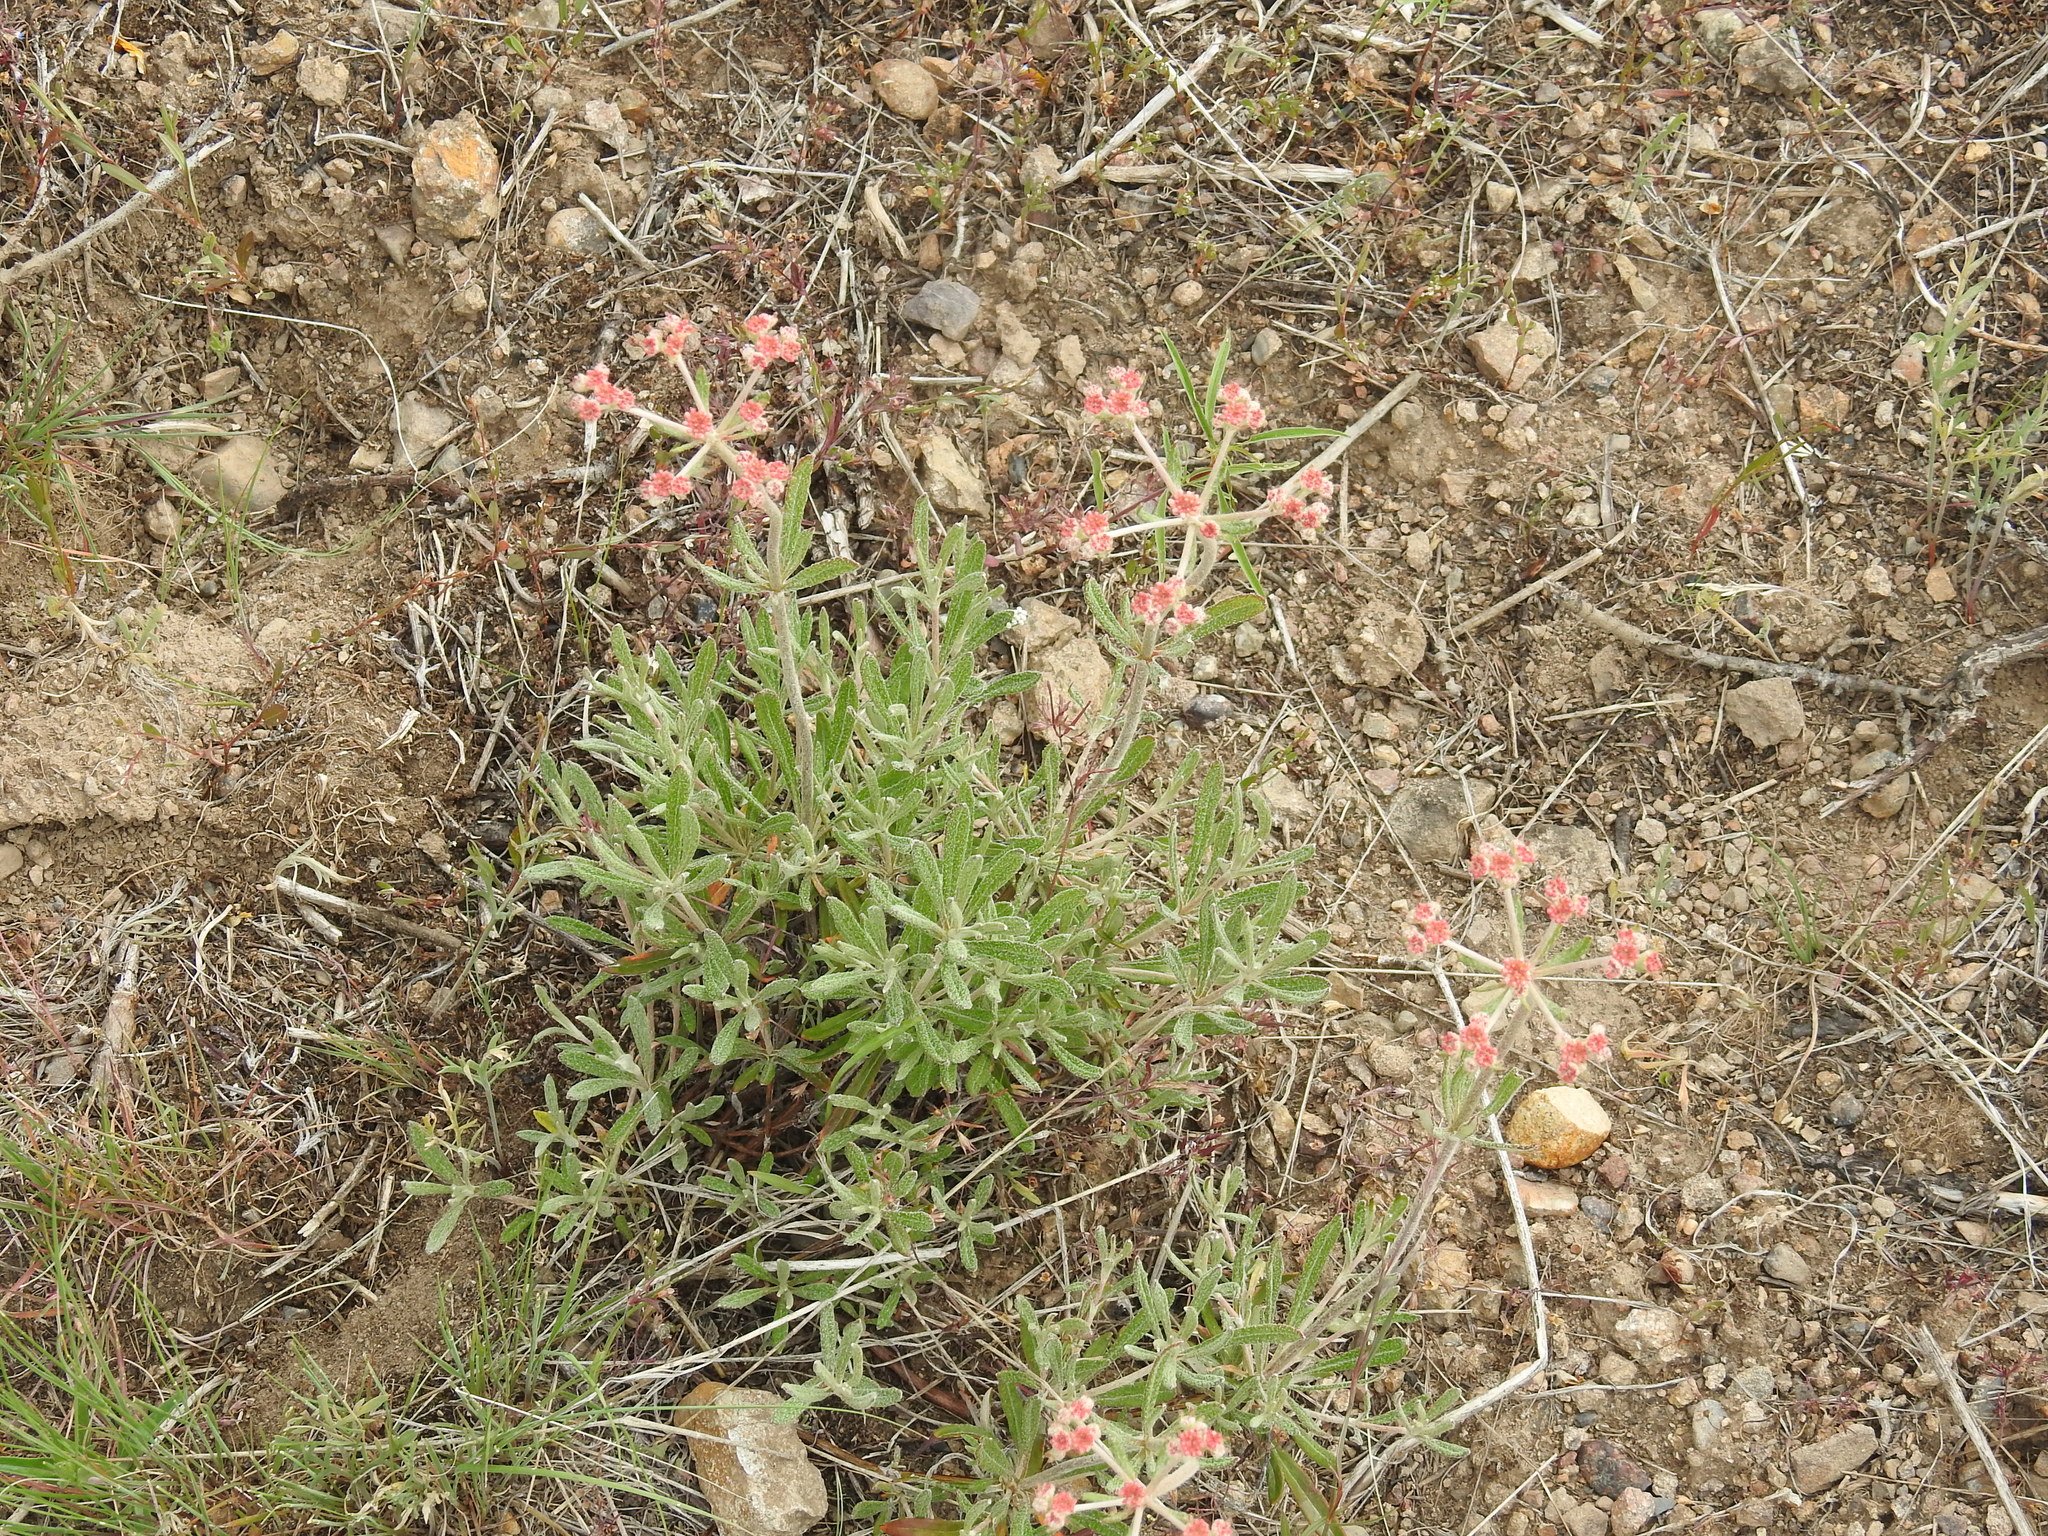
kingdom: Plantae
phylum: Tracheophyta
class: Magnoliopsida
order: Caryophyllales
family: Polygonaceae
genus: Eriogonum
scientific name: Eriogonum heracleoides
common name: Wyeth's buckwheat
